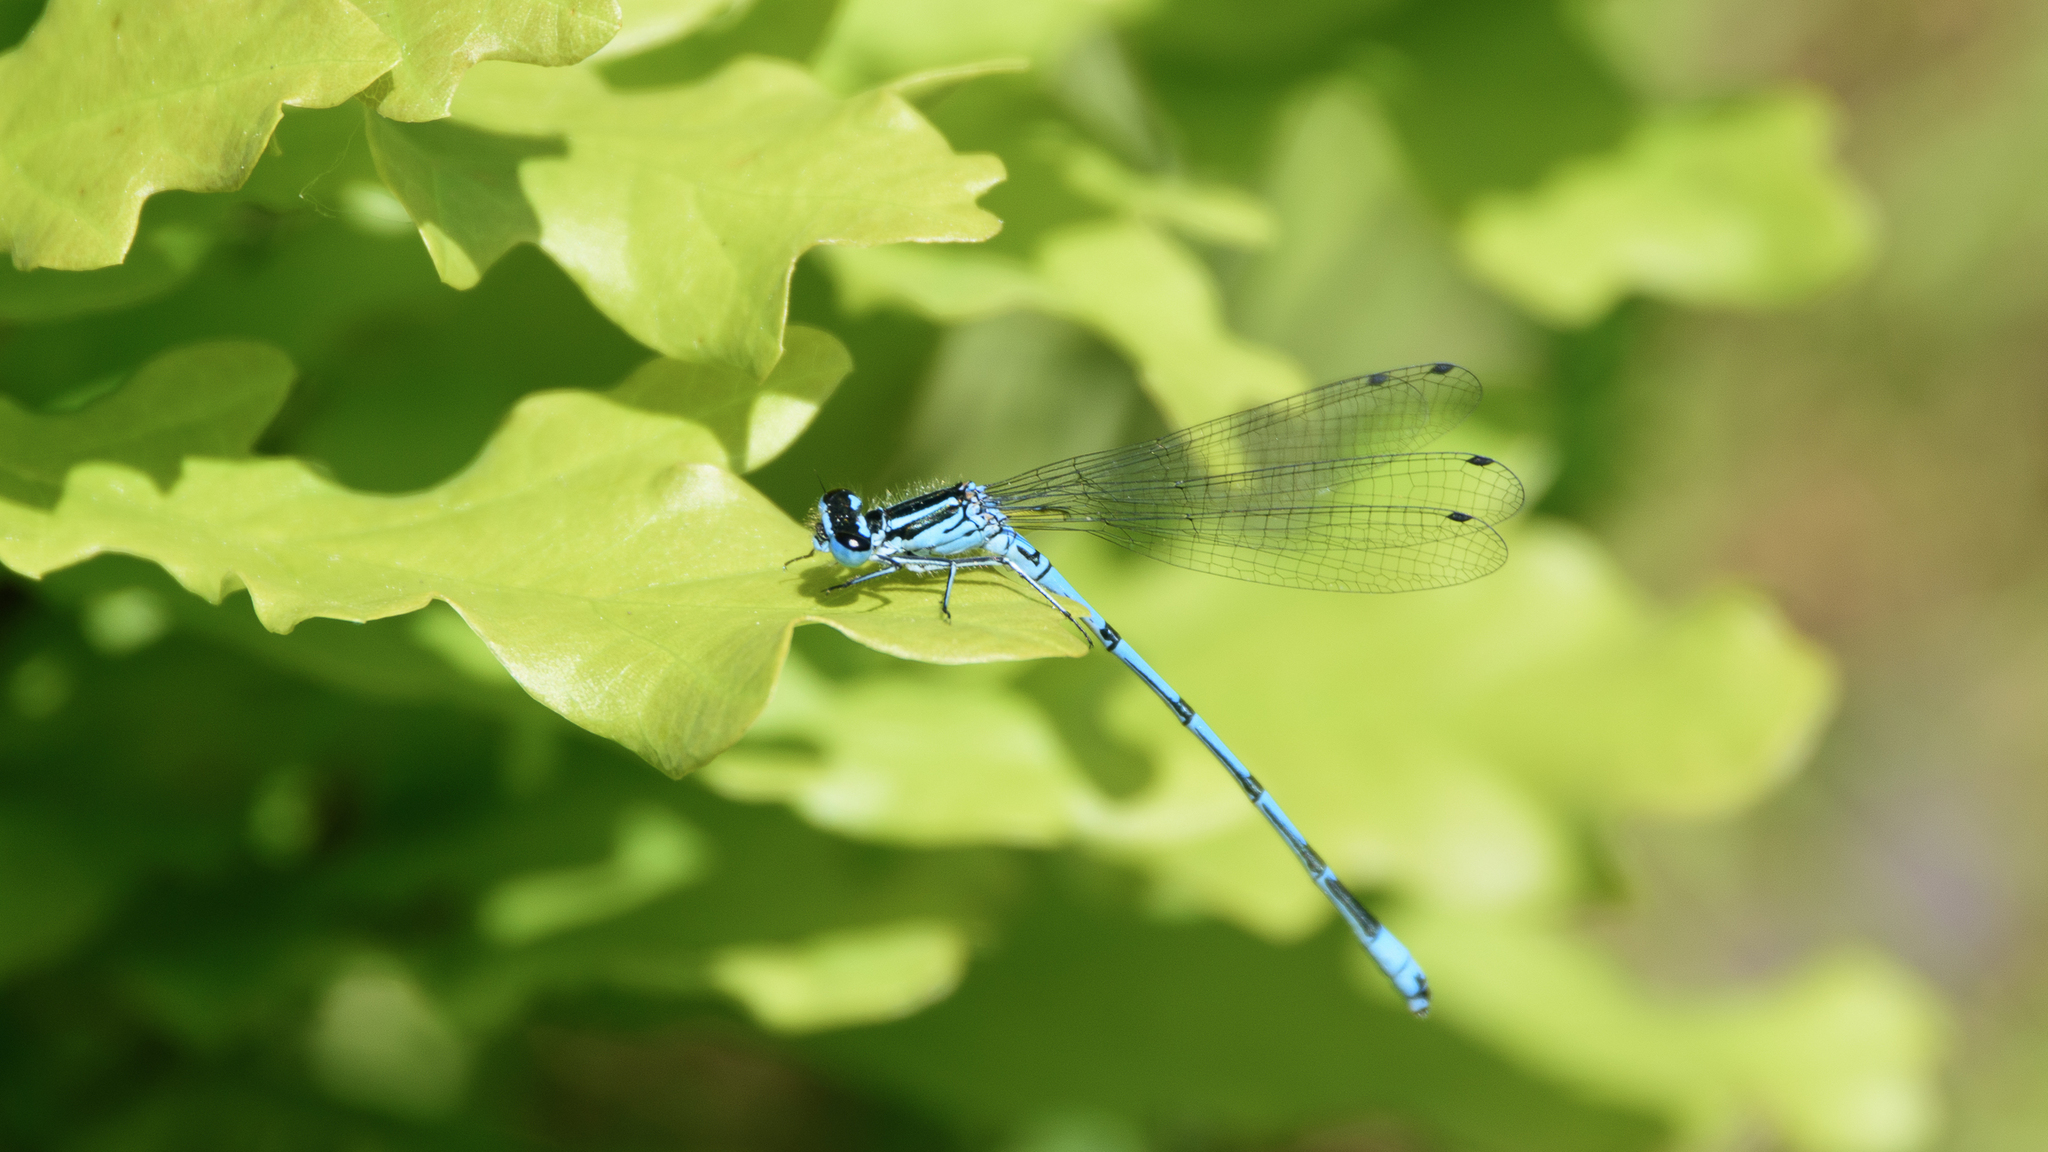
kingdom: Animalia
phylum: Arthropoda
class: Insecta
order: Odonata
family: Coenagrionidae
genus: Coenagrion
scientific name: Coenagrion puella
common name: Azure damselfly
